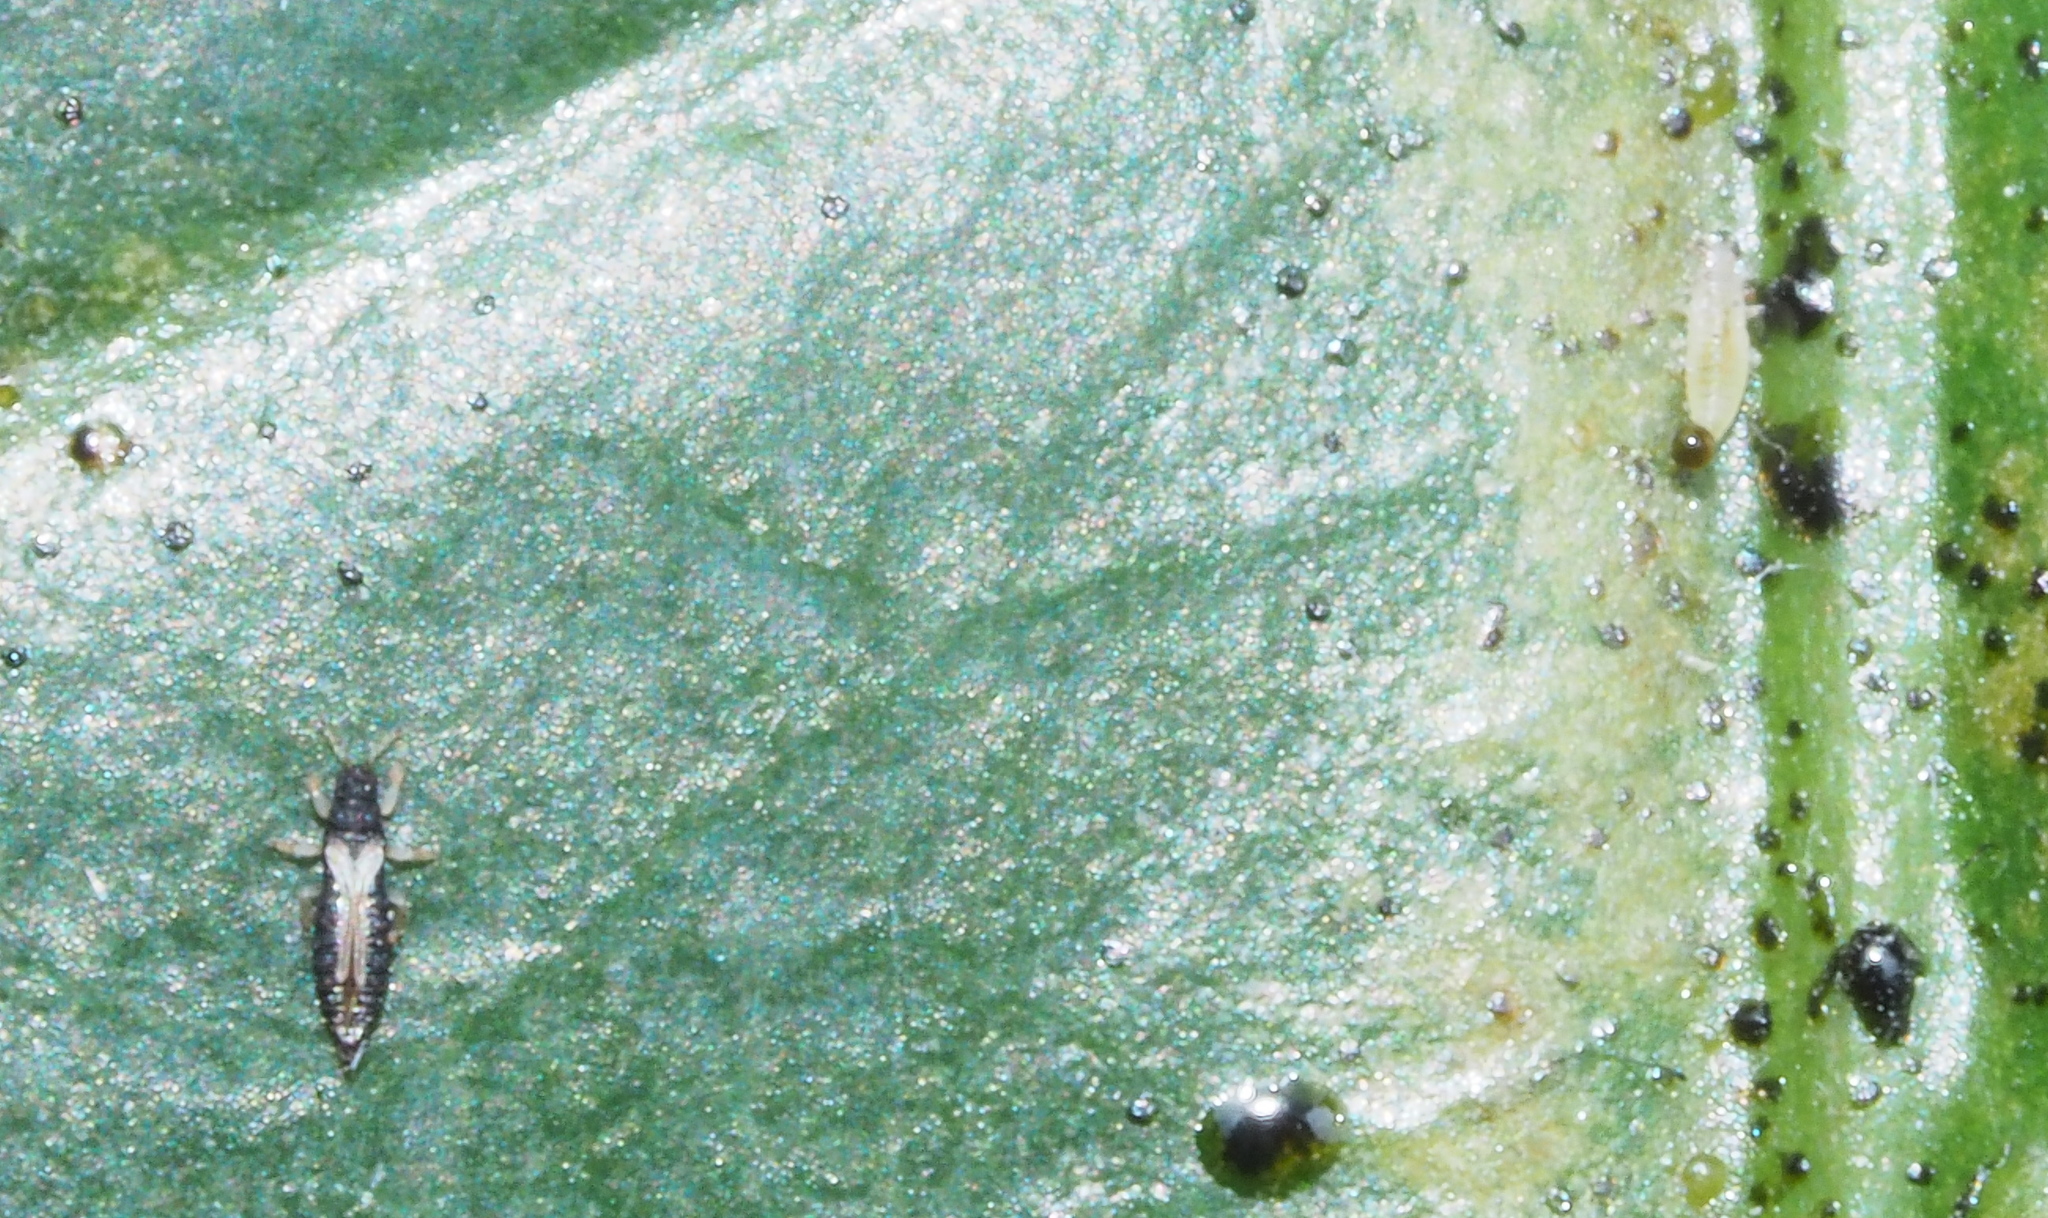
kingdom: Animalia
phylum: Arthropoda
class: Insecta
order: Thysanoptera
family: Thripidae
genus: Heliothrips
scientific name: Heliothrips haemorrhoidalis
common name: Thrips
